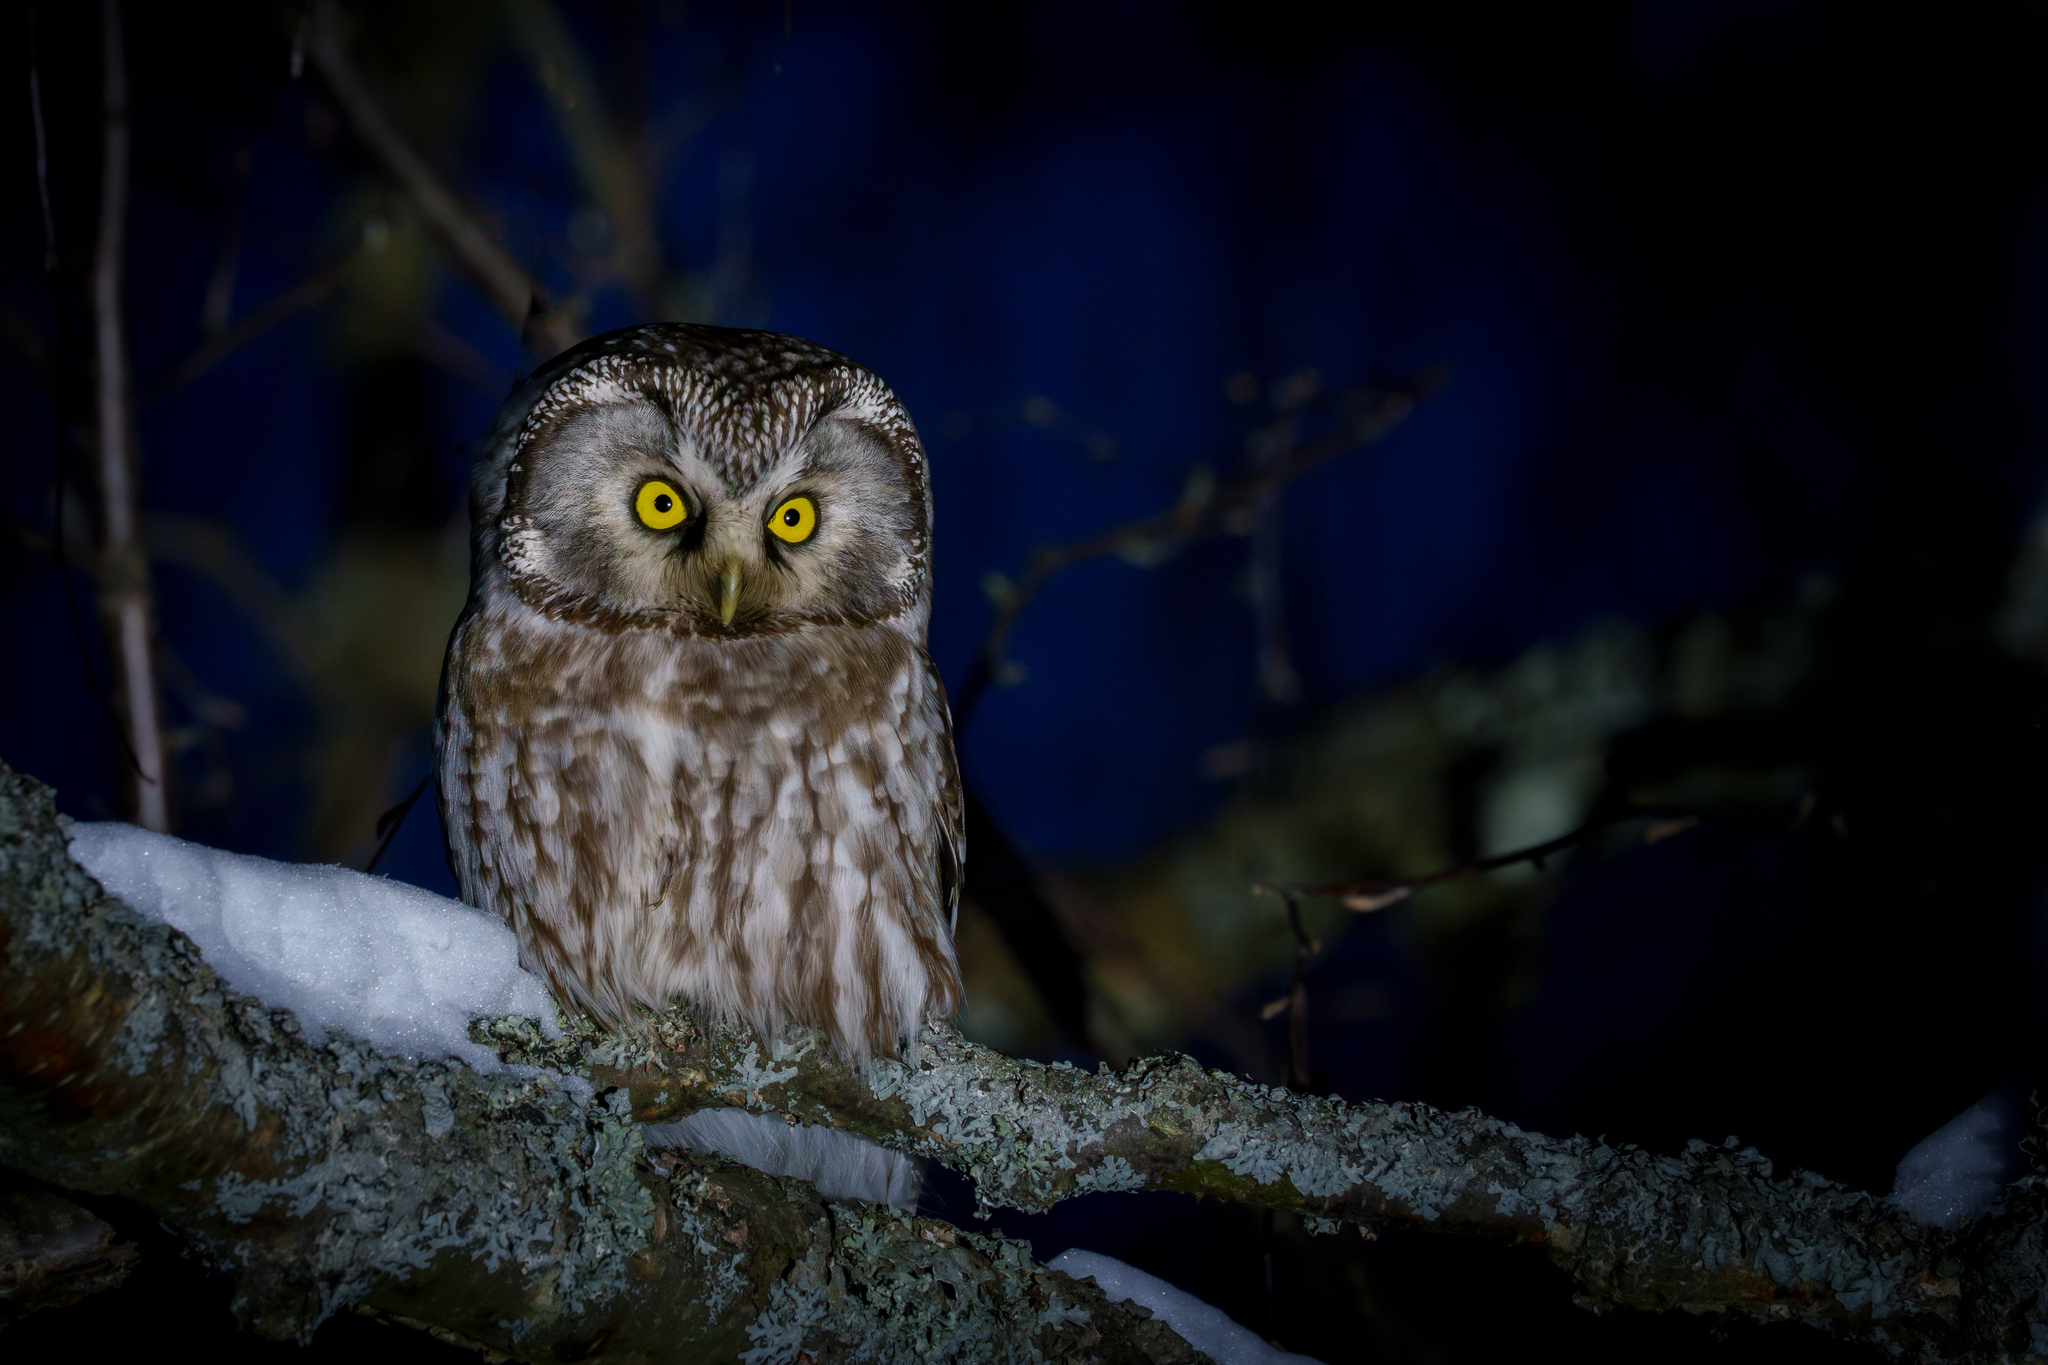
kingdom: Animalia
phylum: Chordata
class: Aves
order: Strigiformes
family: Strigidae
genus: Aegolius
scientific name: Aegolius funereus
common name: Boreal owl
